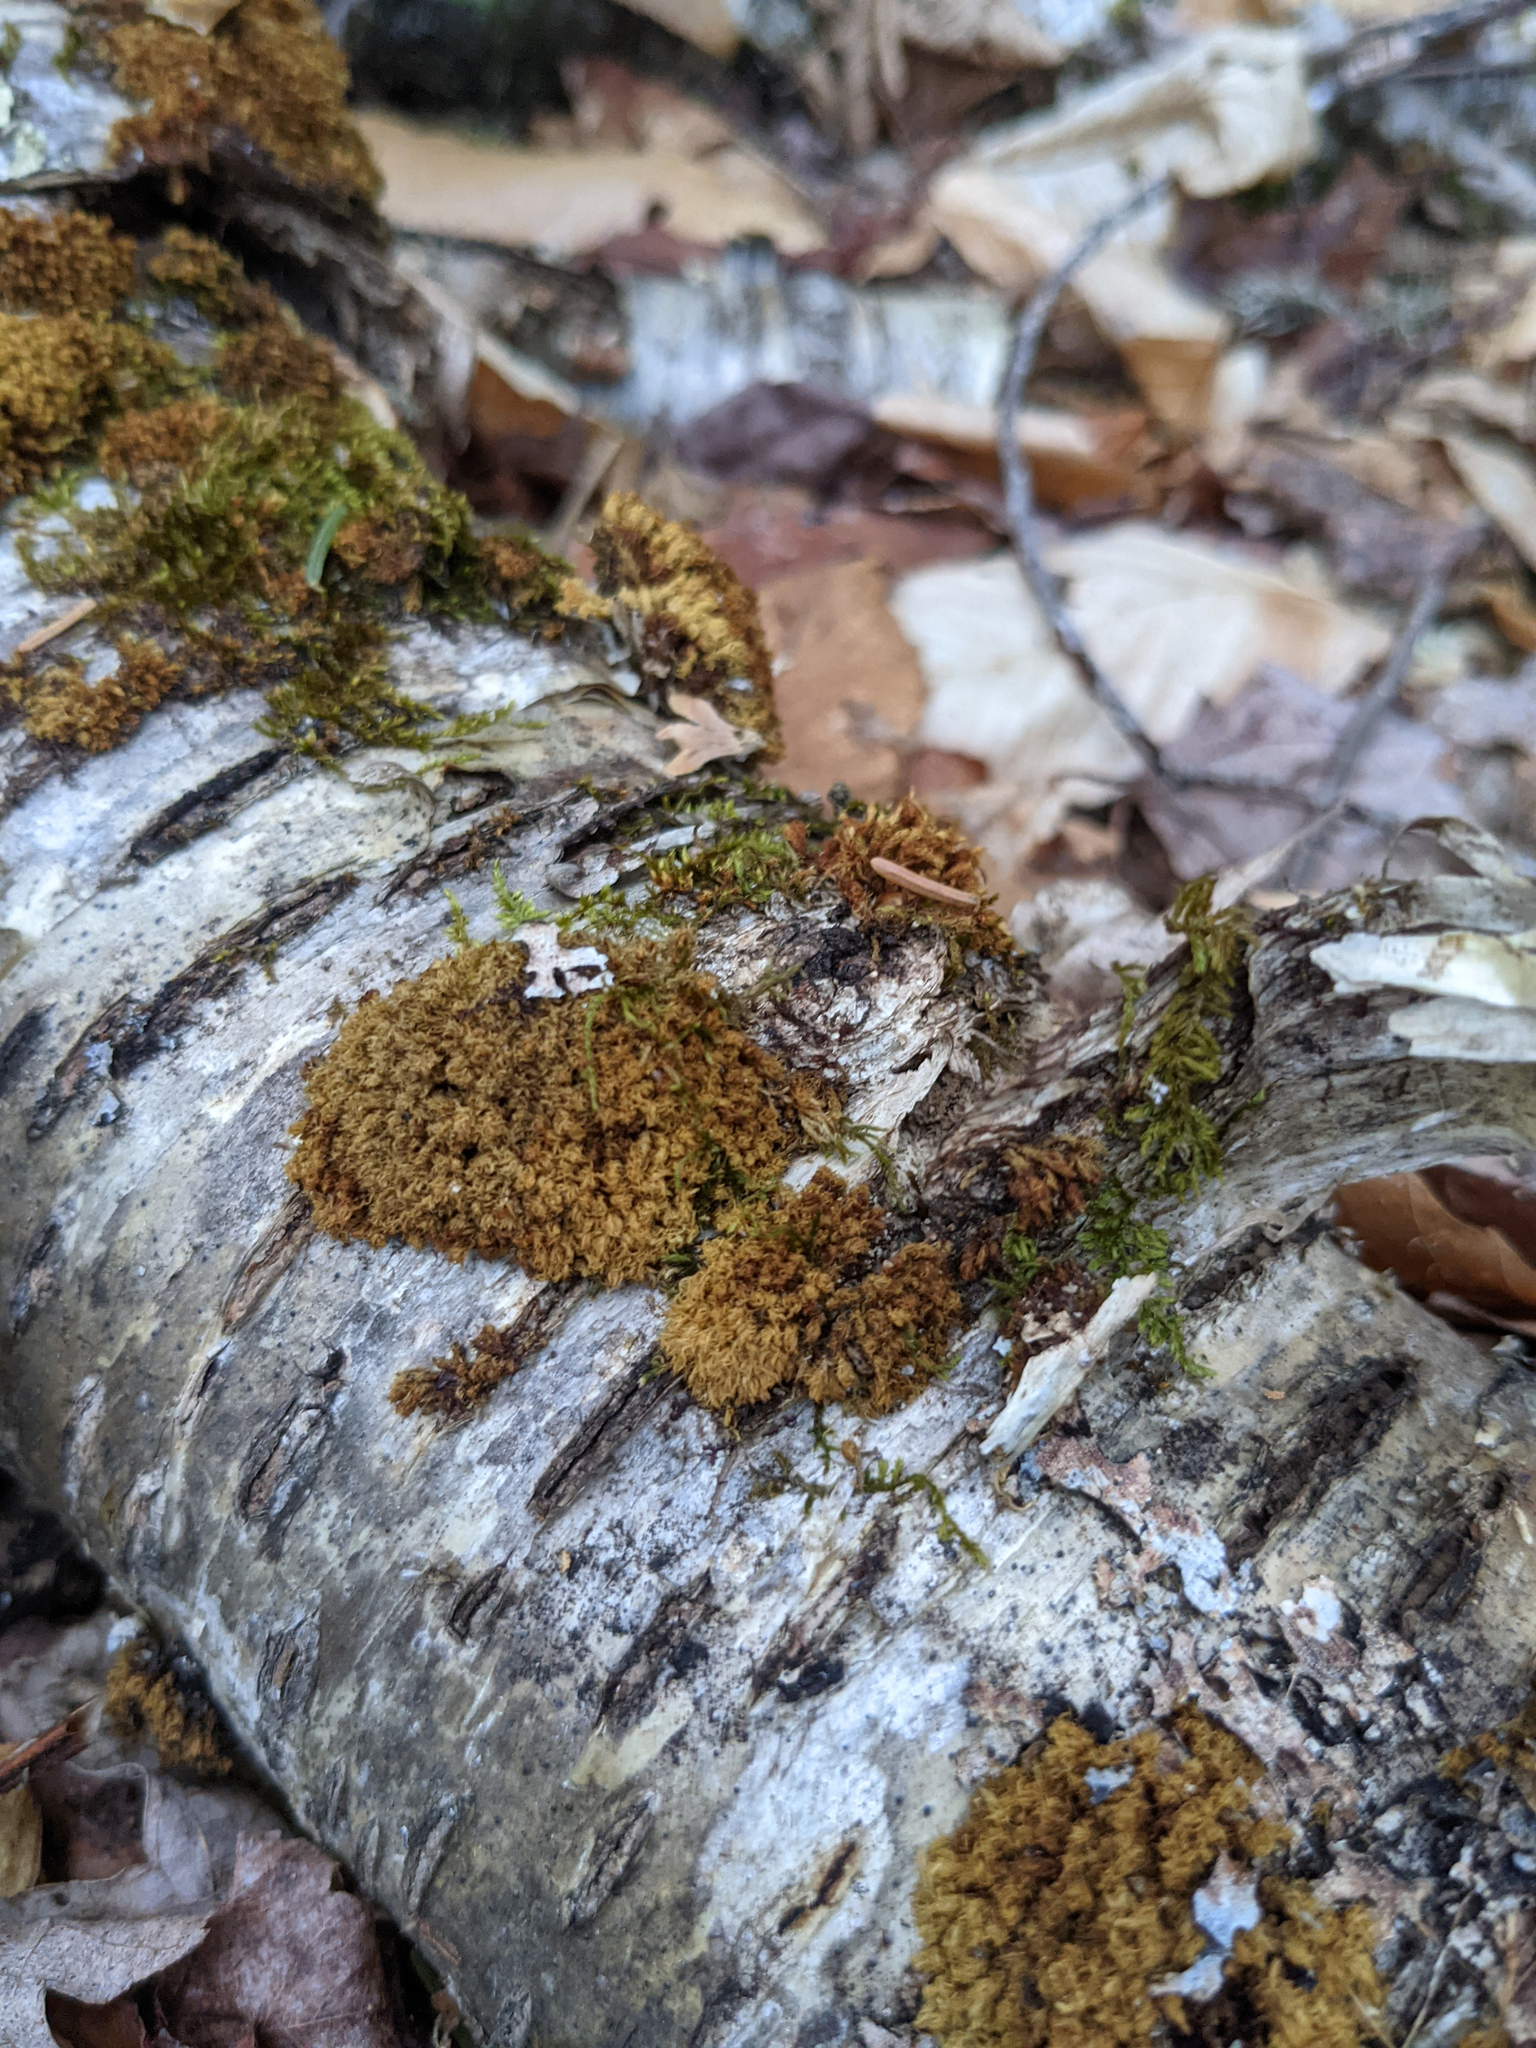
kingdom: Plantae
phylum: Bryophyta
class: Bryopsida
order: Orthotrichales
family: Orthotrichaceae
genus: Ulota
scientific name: Ulota crispa
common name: Crisped pincushion moss
